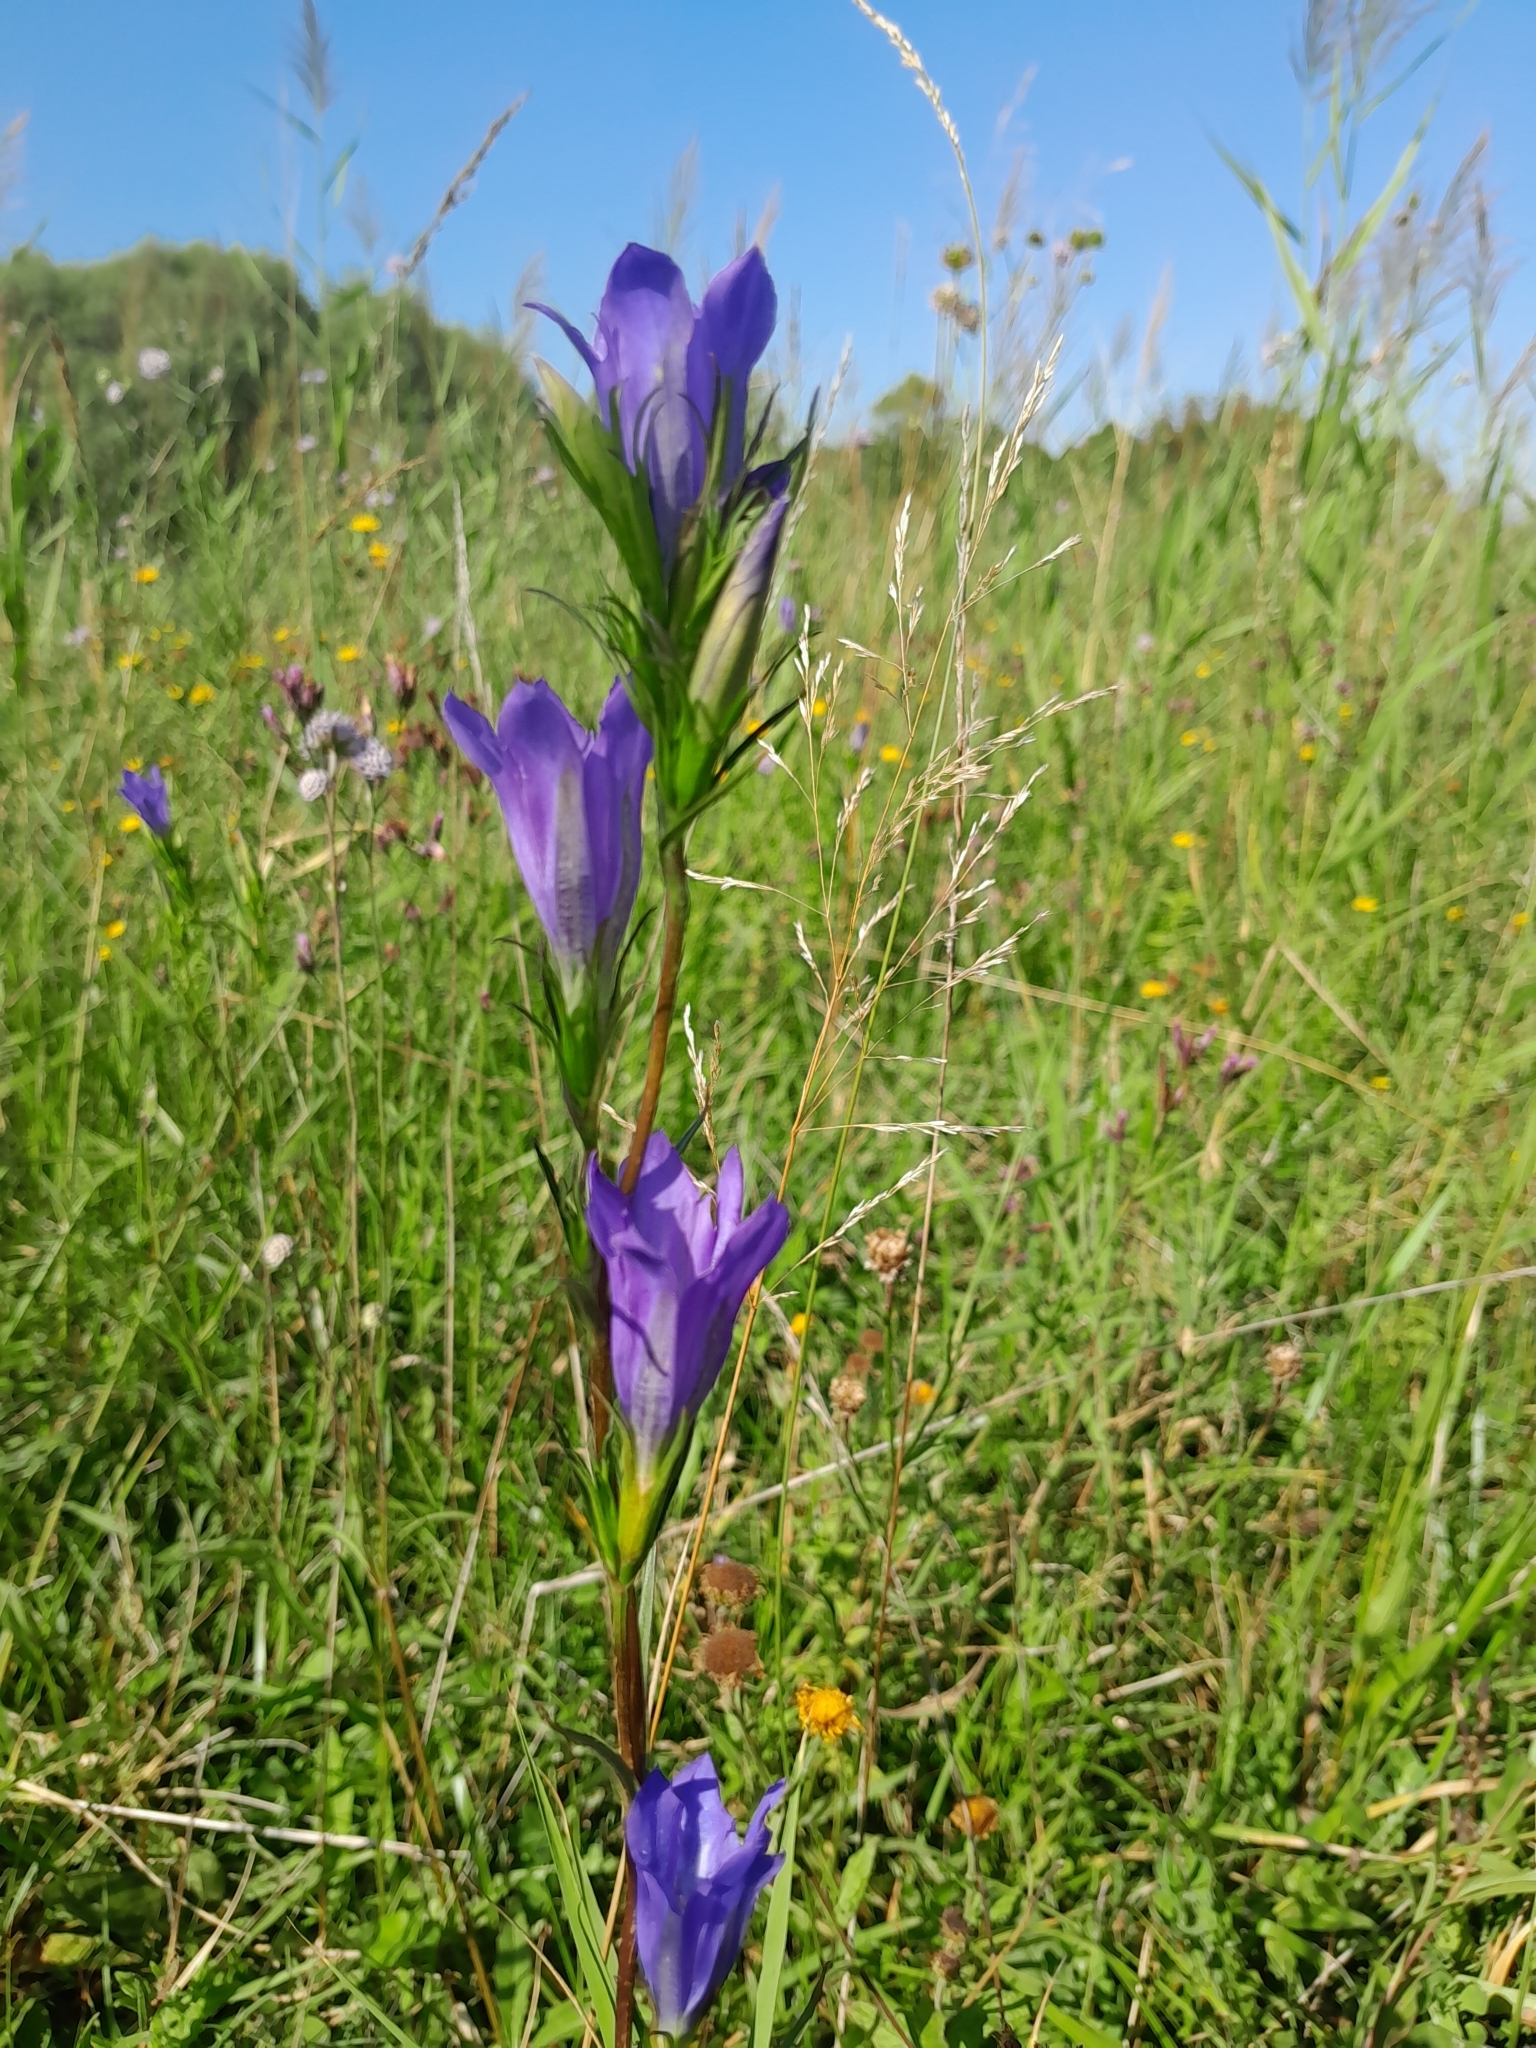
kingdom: Plantae
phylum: Tracheophyta
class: Magnoliopsida
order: Gentianales
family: Gentianaceae
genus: Gentiana
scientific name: Gentiana pneumonanthe
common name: Marsh gentian
